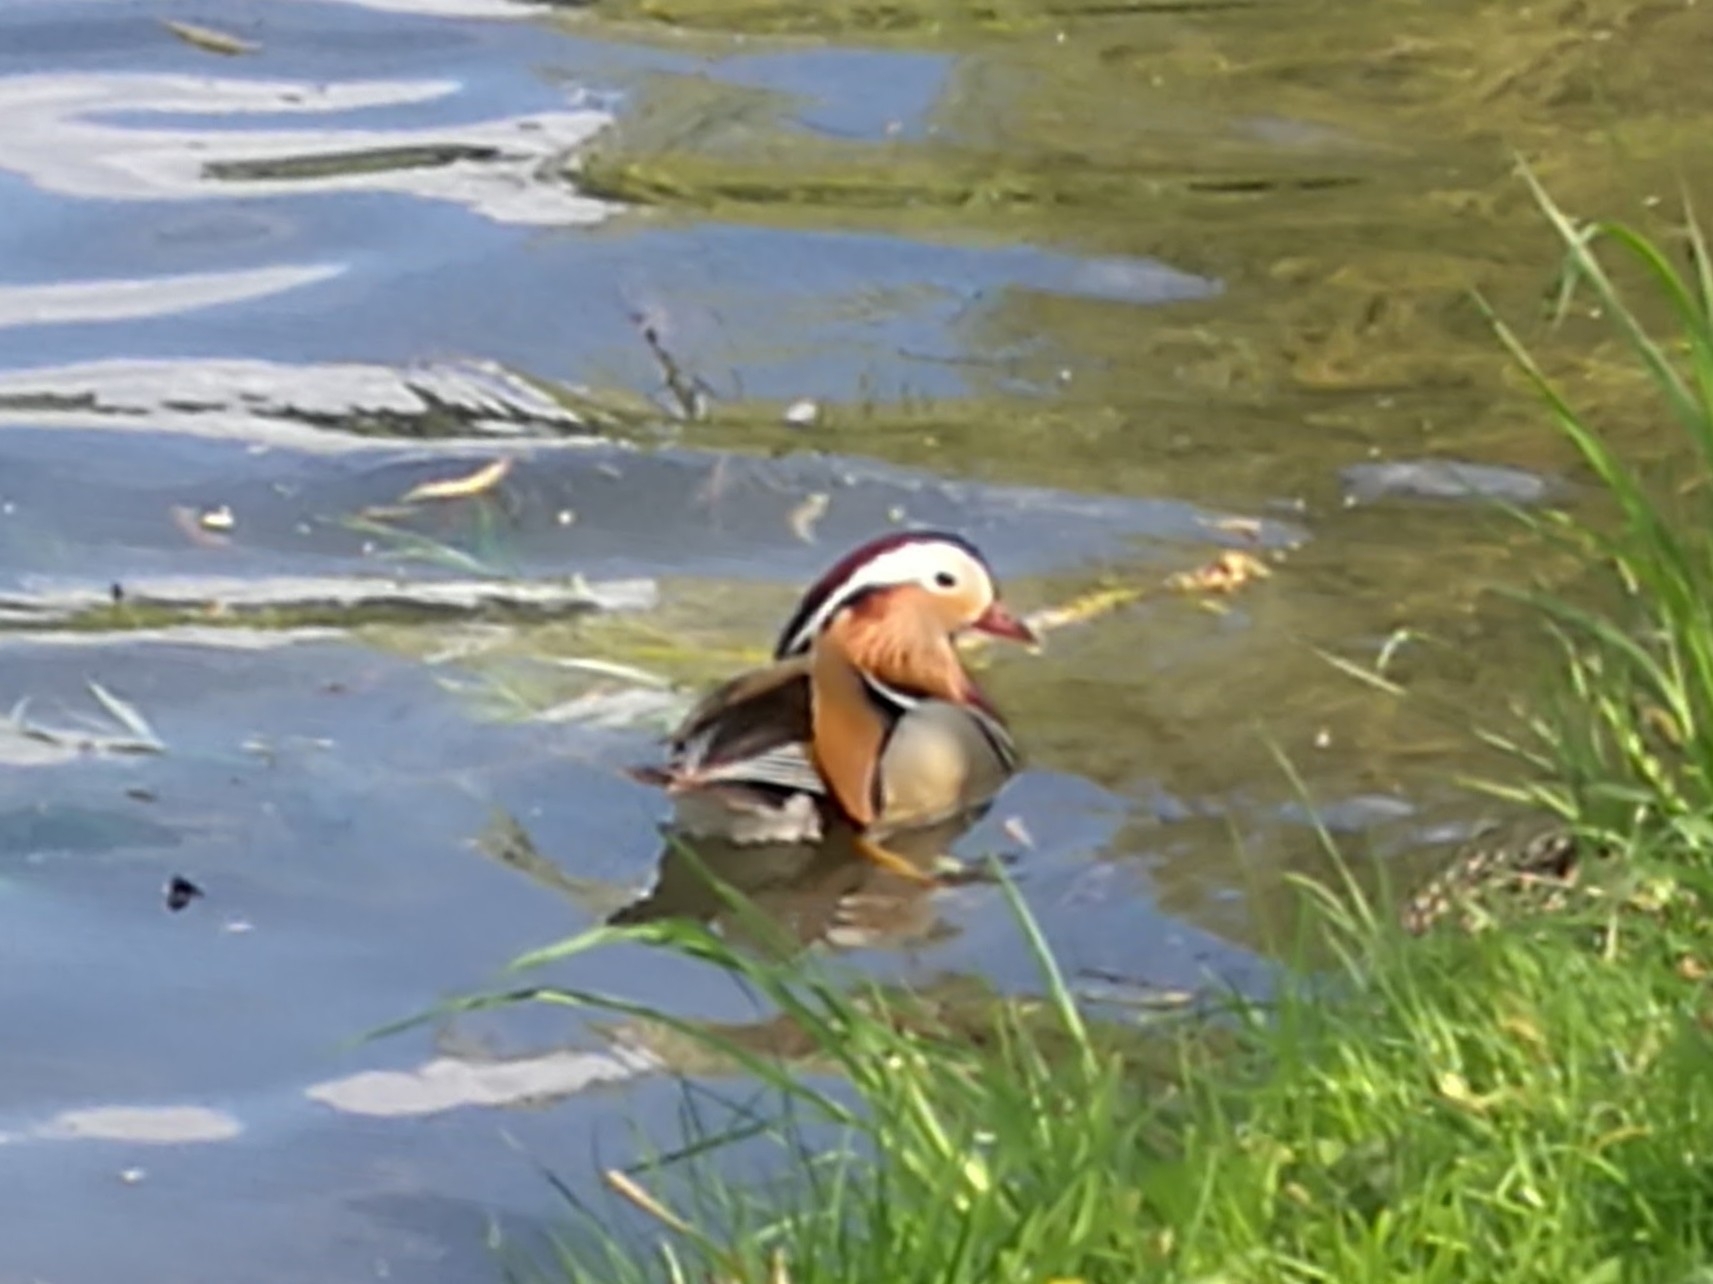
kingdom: Animalia
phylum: Chordata
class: Aves
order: Anseriformes
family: Anatidae
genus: Aix
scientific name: Aix galericulata
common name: Mandarin duck
